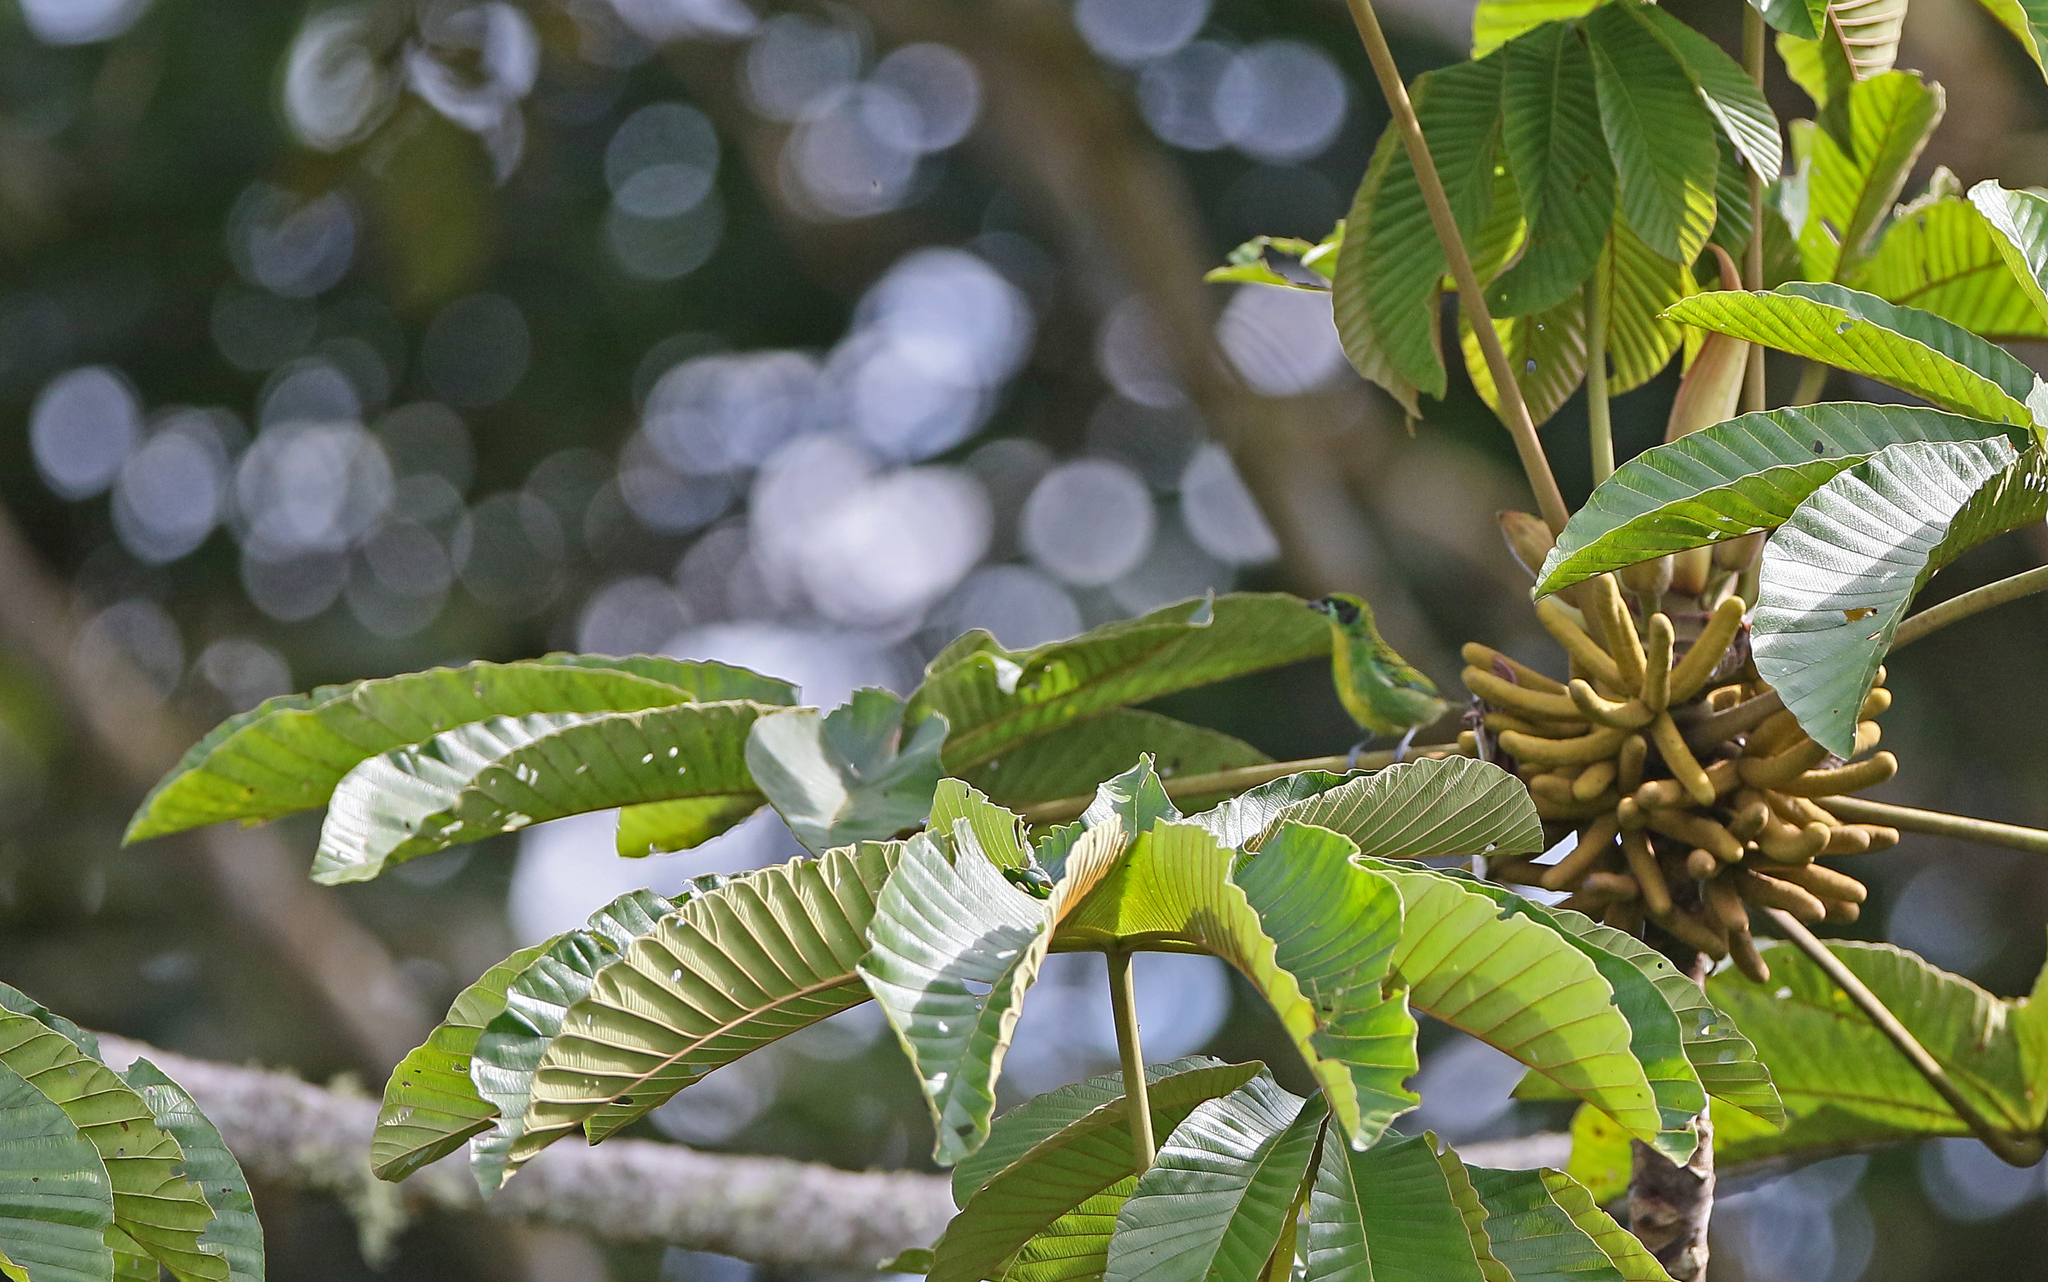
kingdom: Animalia
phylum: Chordata
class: Aves
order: Passeriformes
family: Thraupidae
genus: Tangara
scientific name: Tangara schrankii
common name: Green-and-gold tanager
